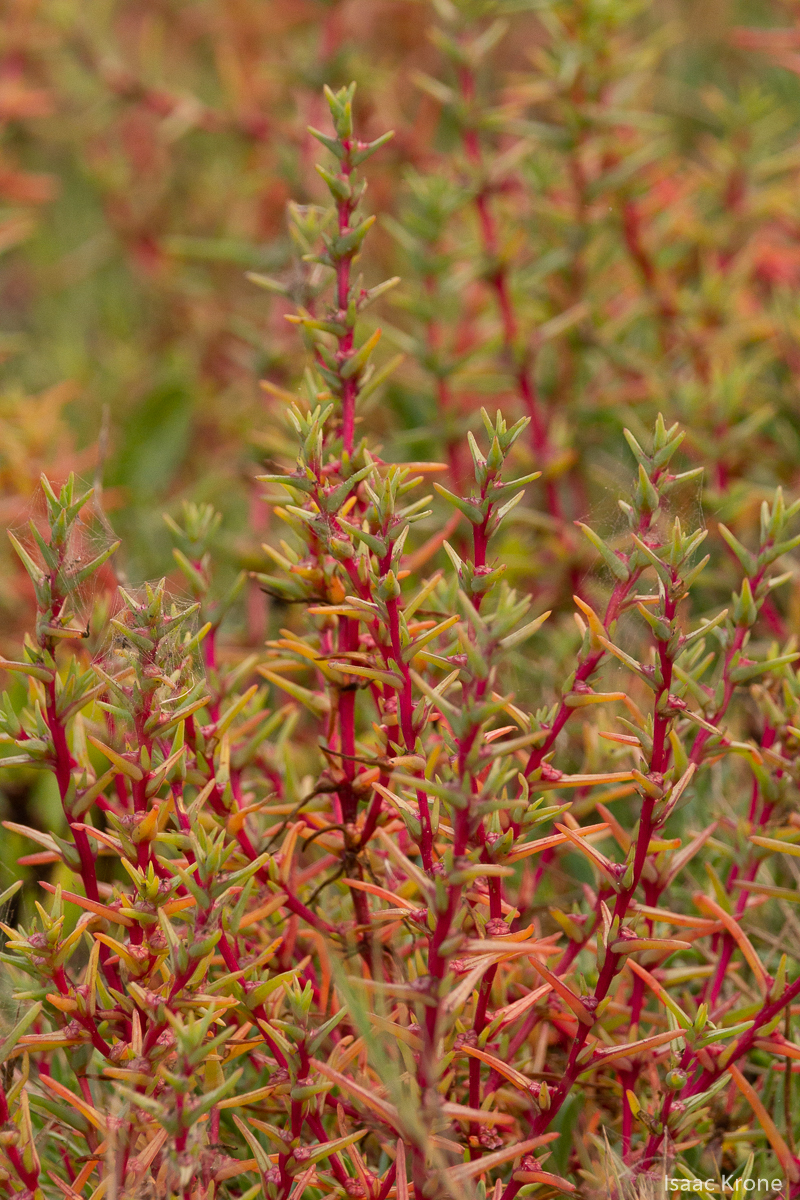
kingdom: Plantae
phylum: Tracheophyta
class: Magnoliopsida
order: Caryophyllales
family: Amaranthaceae
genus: Salsola
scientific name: Salsola soda
